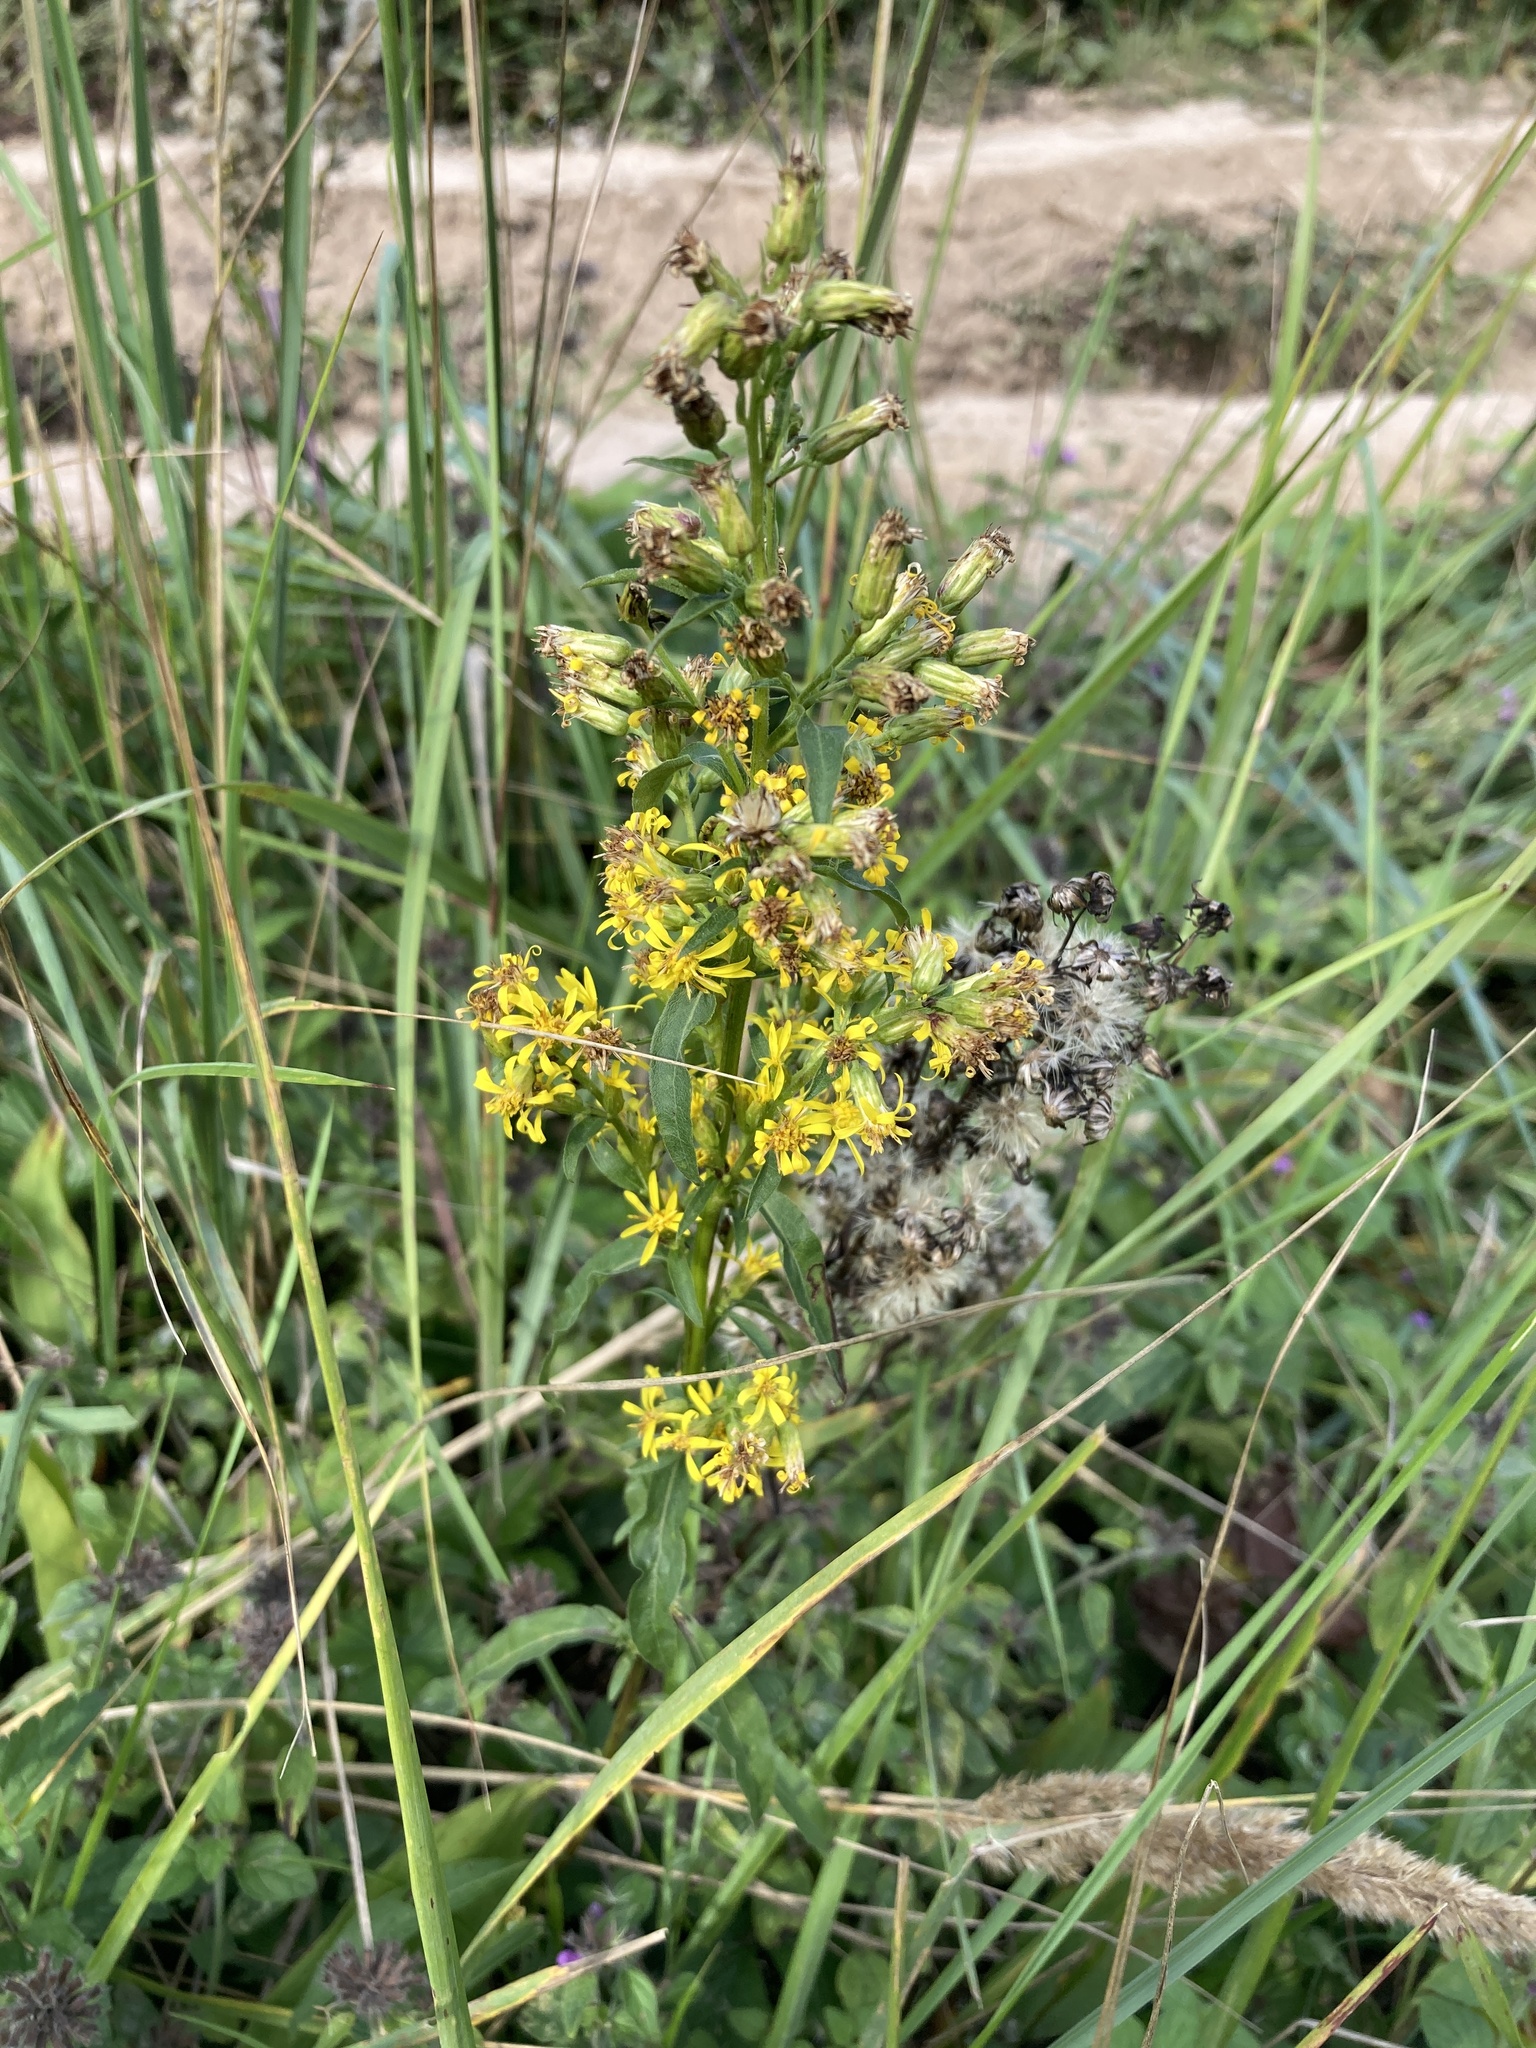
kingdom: Plantae
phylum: Tracheophyta
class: Magnoliopsida
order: Asterales
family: Asteraceae
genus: Solidago
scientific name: Solidago virgaurea
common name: Goldenrod
